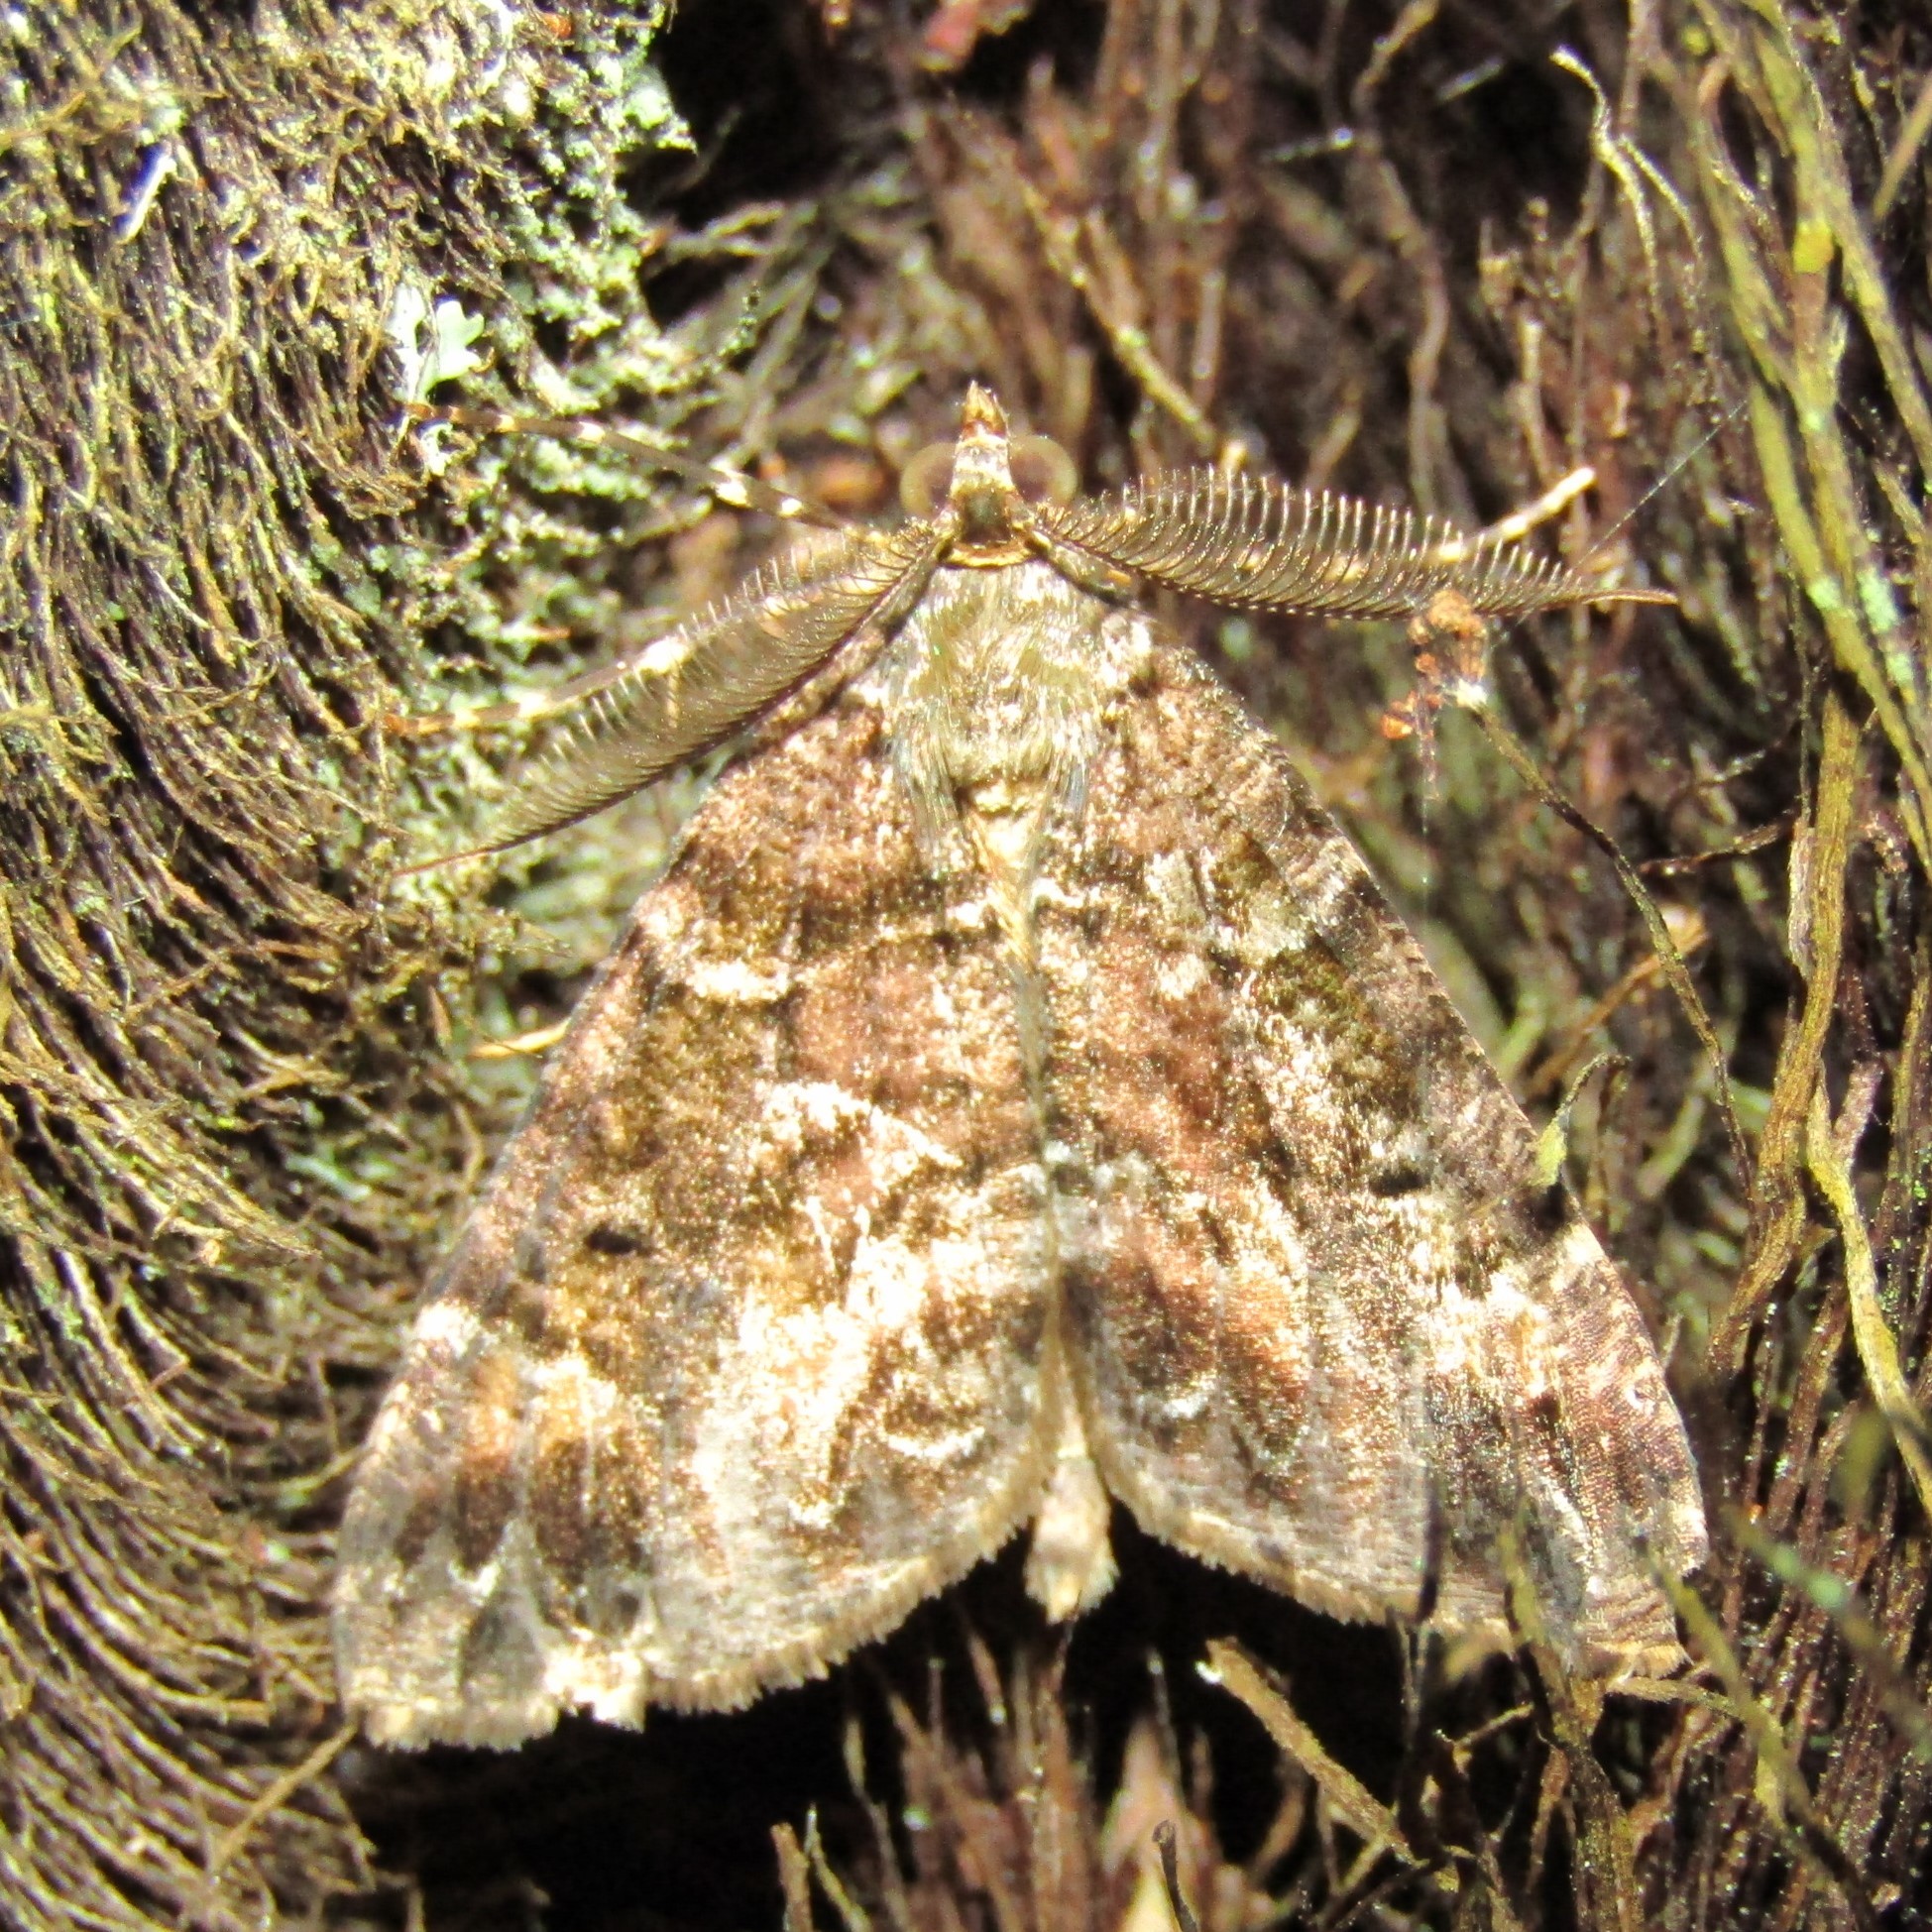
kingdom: Animalia
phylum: Arthropoda
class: Insecta
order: Lepidoptera
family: Geometridae
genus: Pseudocoremia
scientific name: Pseudocoremia productata
